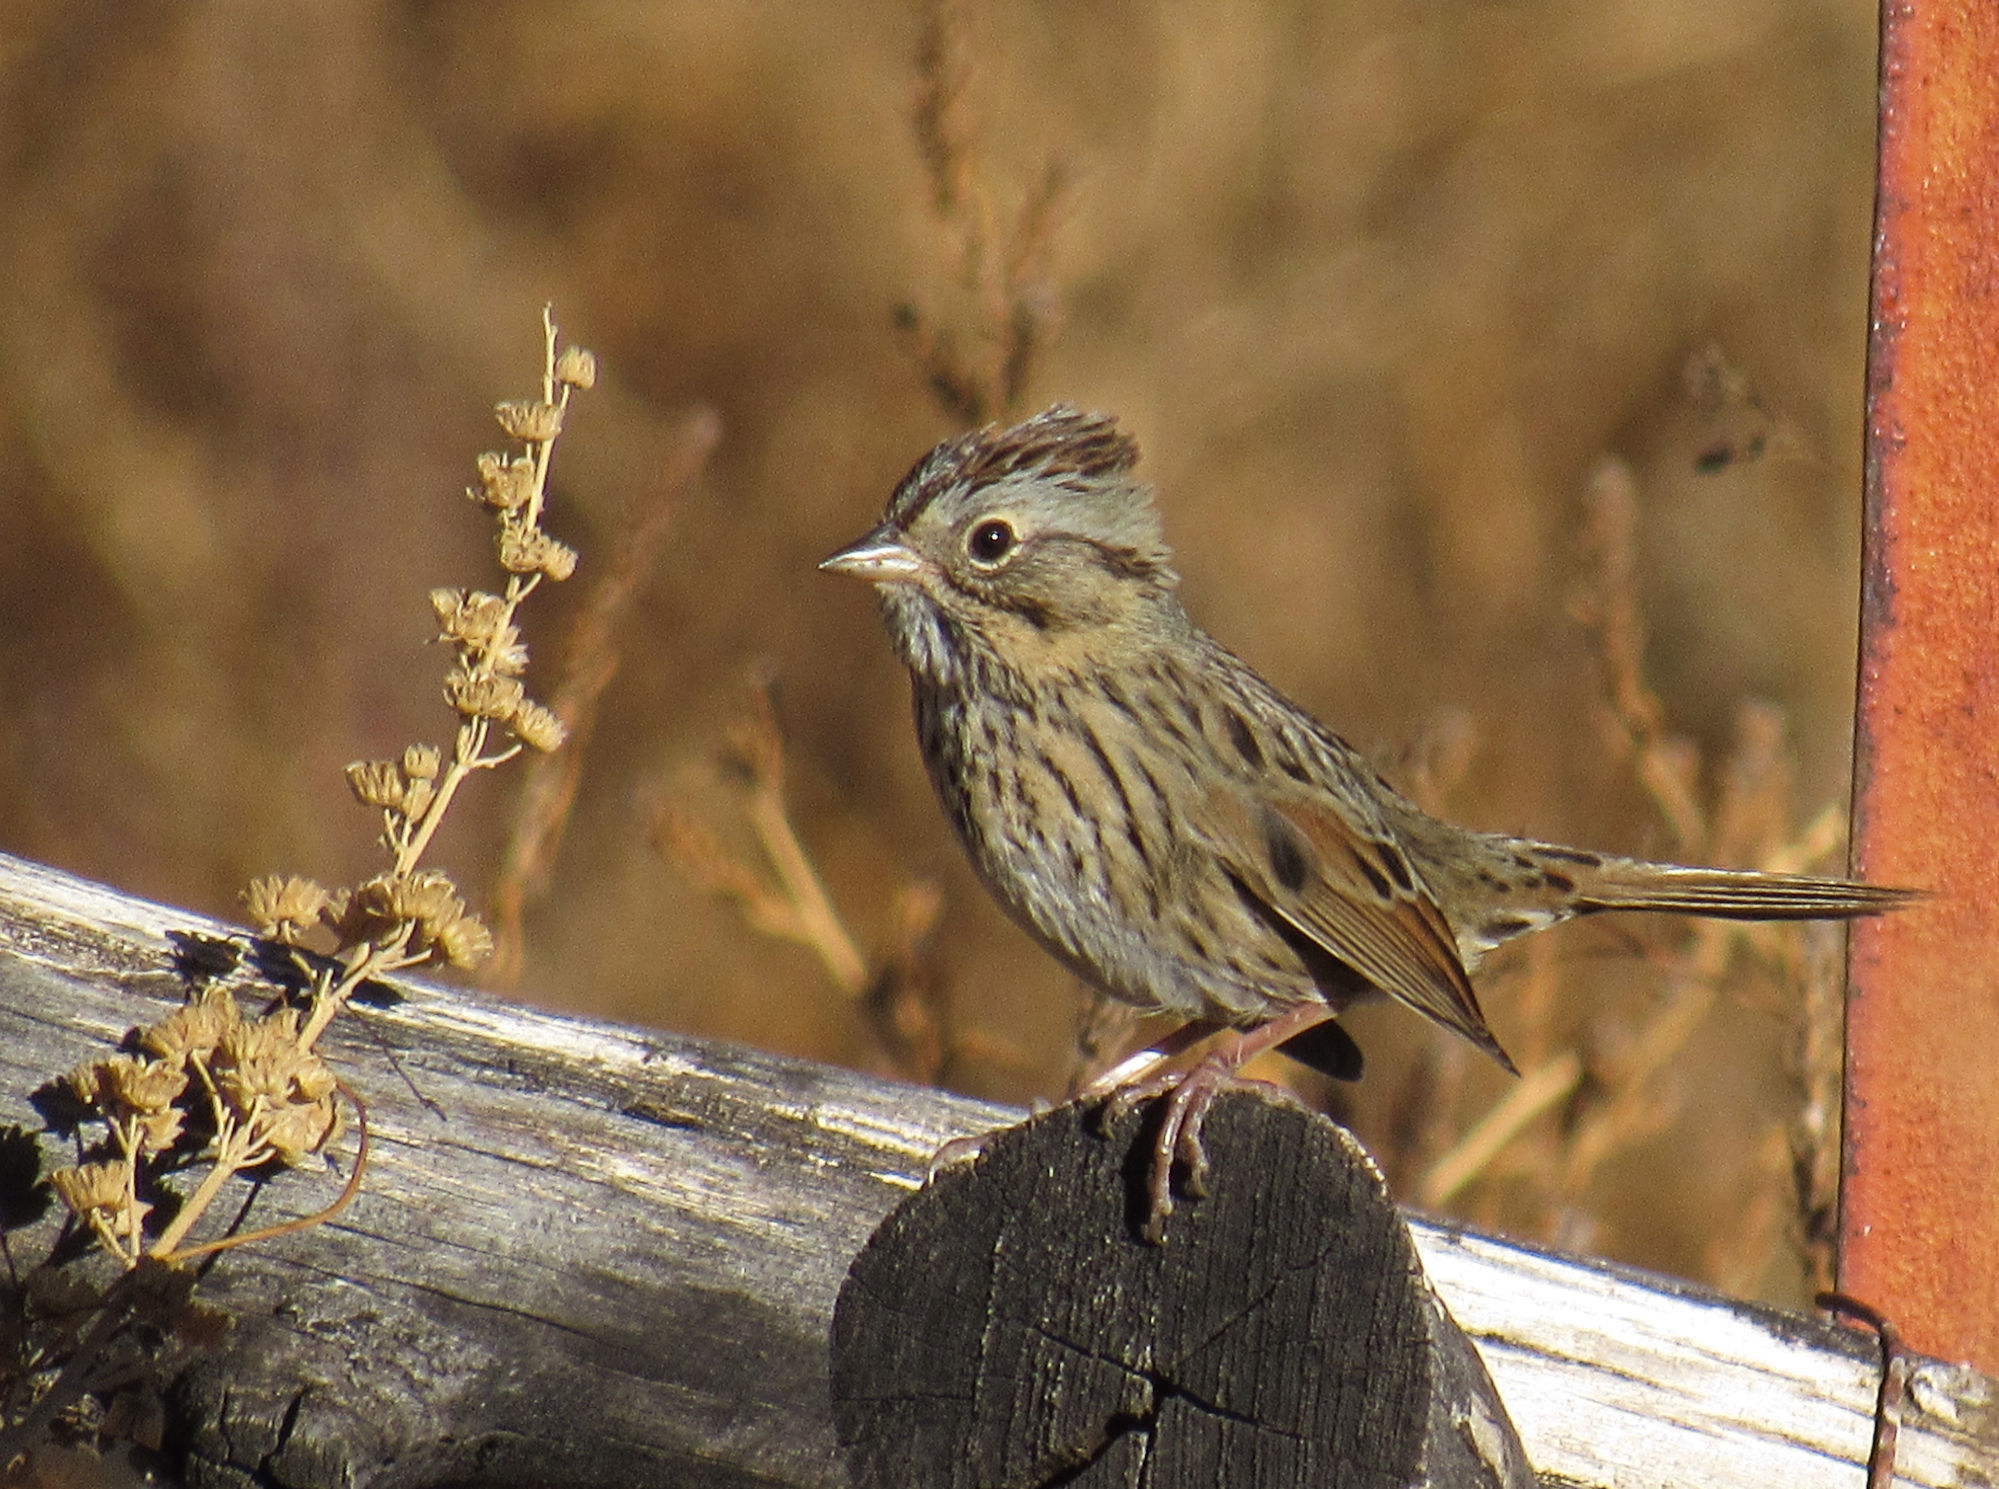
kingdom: Animalia
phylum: Chordata
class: Aves
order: Passeriformes
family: Passerellidae
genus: Melospiza
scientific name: Melospiza lincolnii
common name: Lincoln's sparrow
